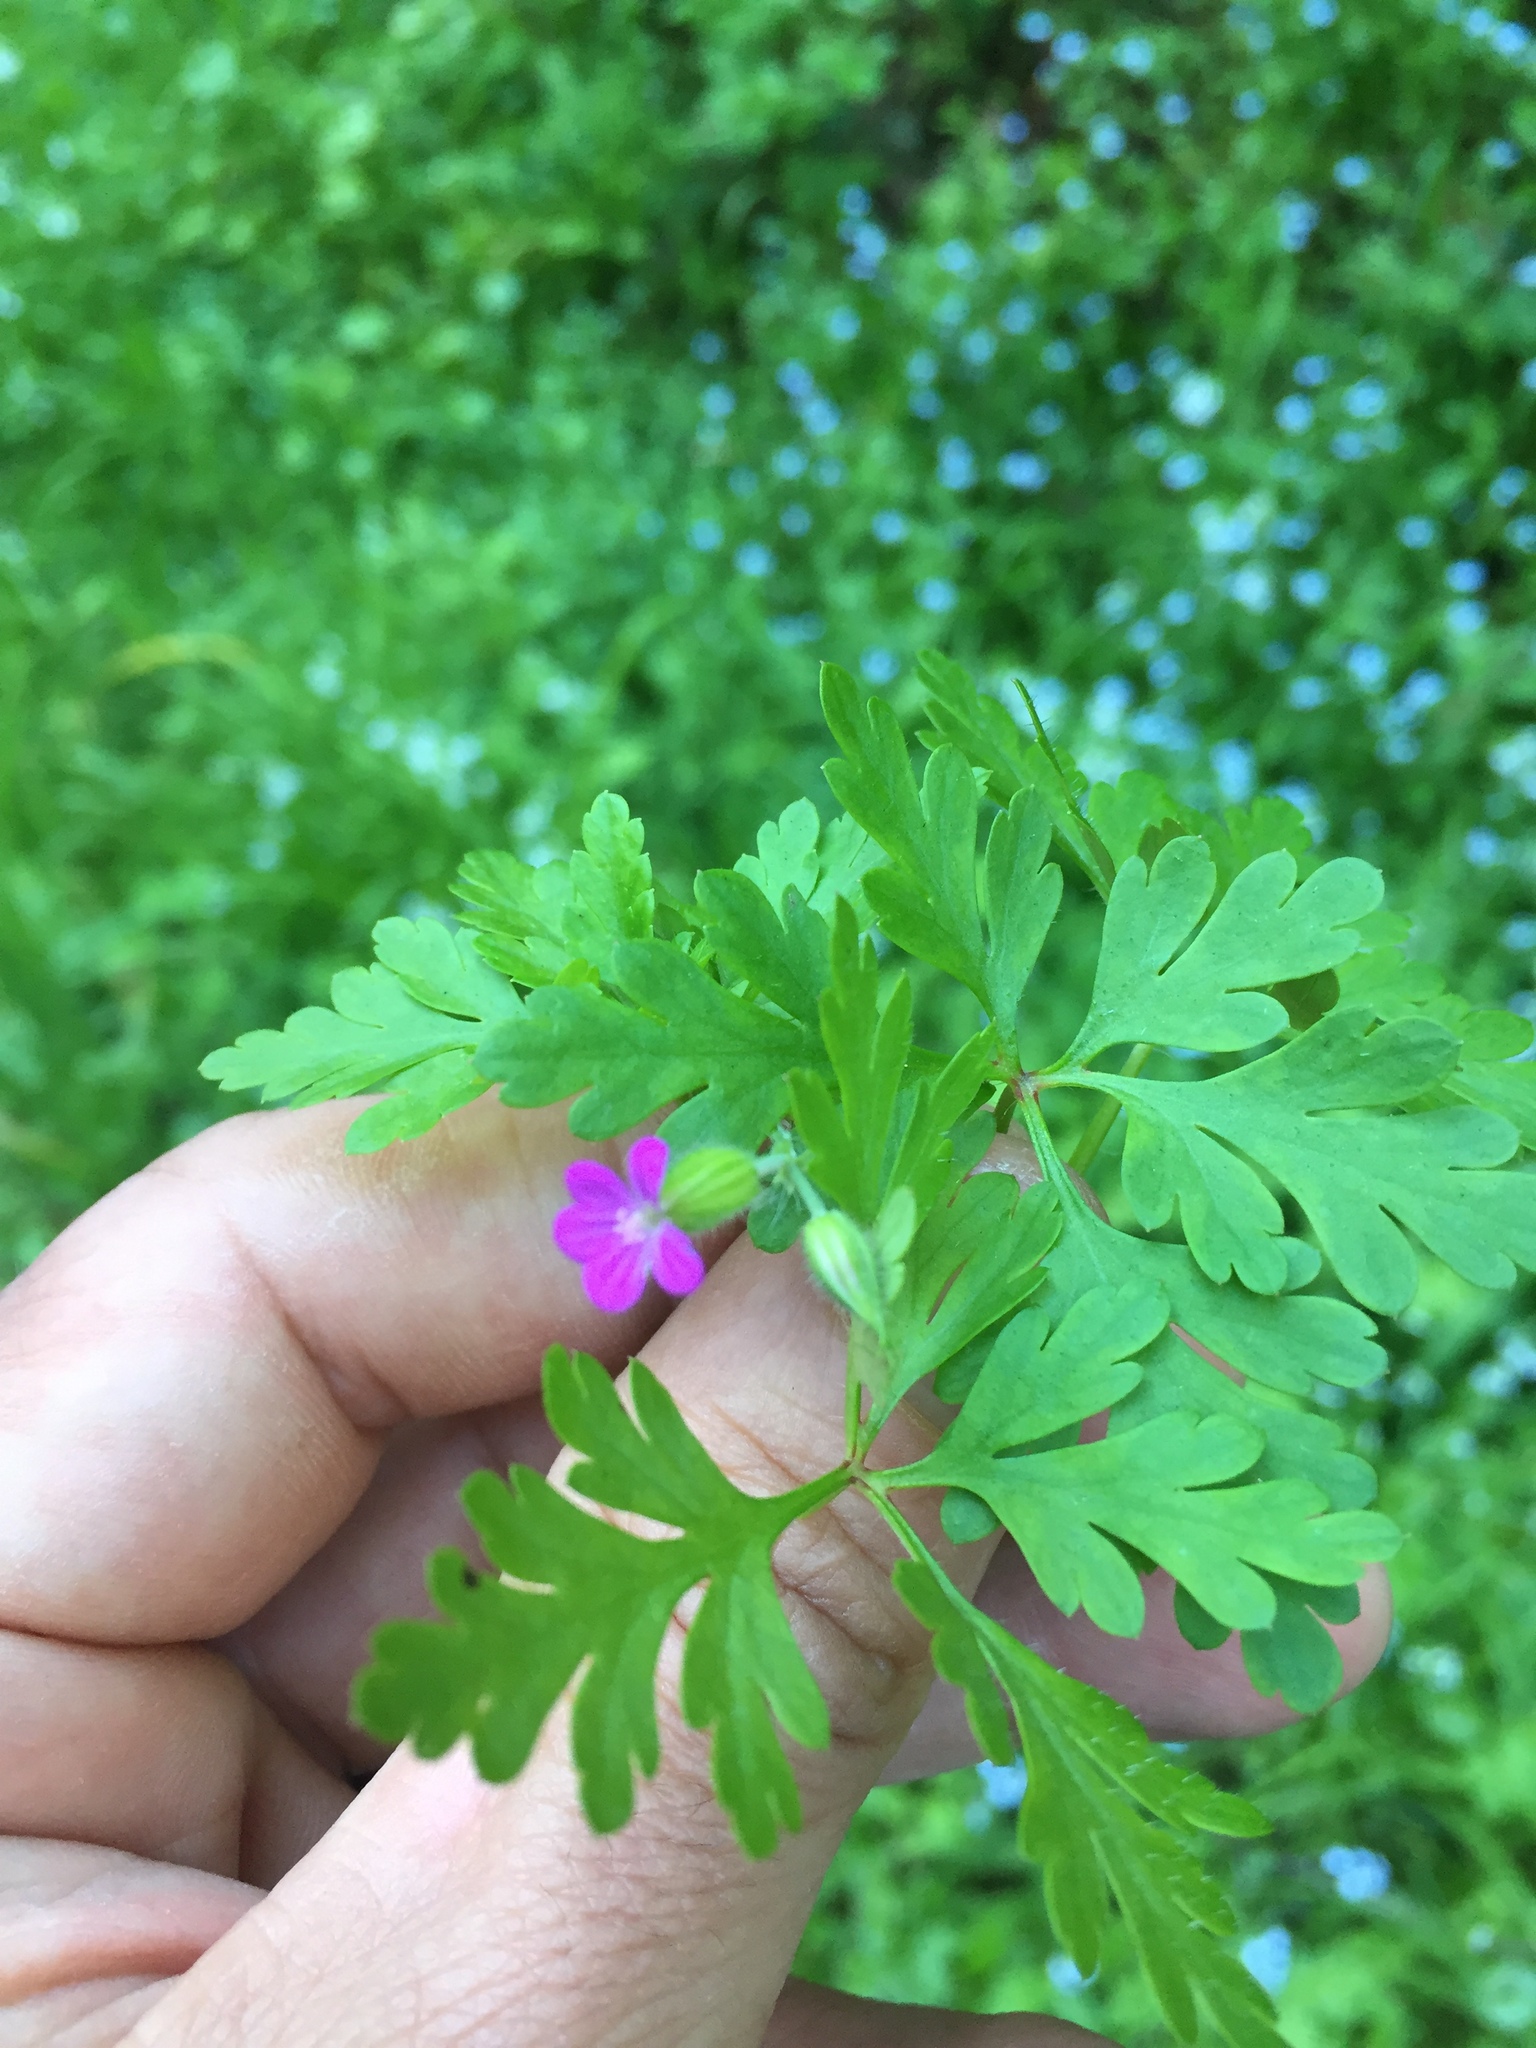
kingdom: Plantae
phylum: Tracheophyta
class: Magnoliopsida
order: Geraniales
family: Geraniaceae
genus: Geranium
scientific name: Geranium purpureum
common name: Little-robin
